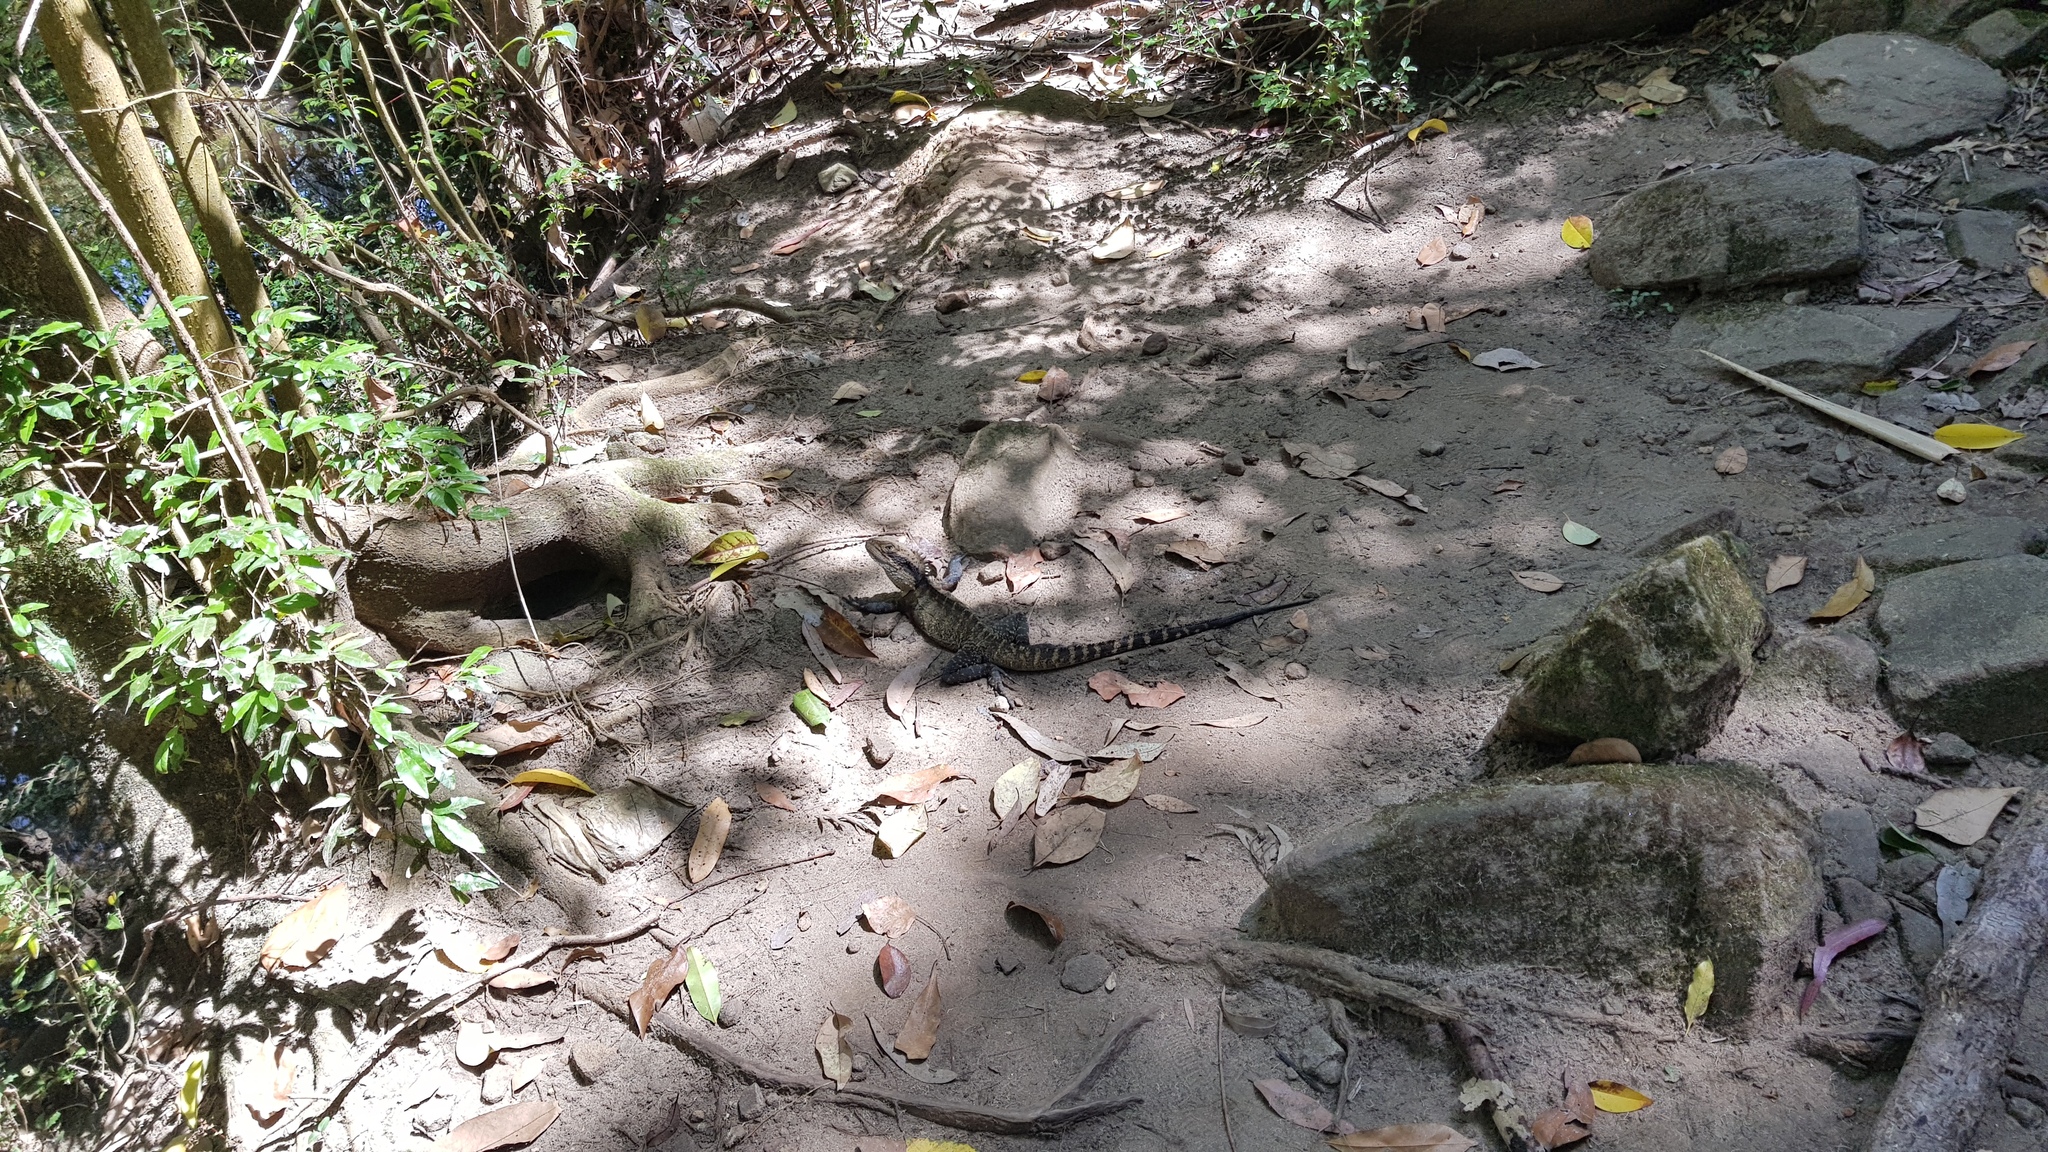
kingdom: Animalia
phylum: Chordata
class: Squamata
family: Agamidae
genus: Intellagama
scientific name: Intellagama lesueurii
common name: Eastern water dragon
